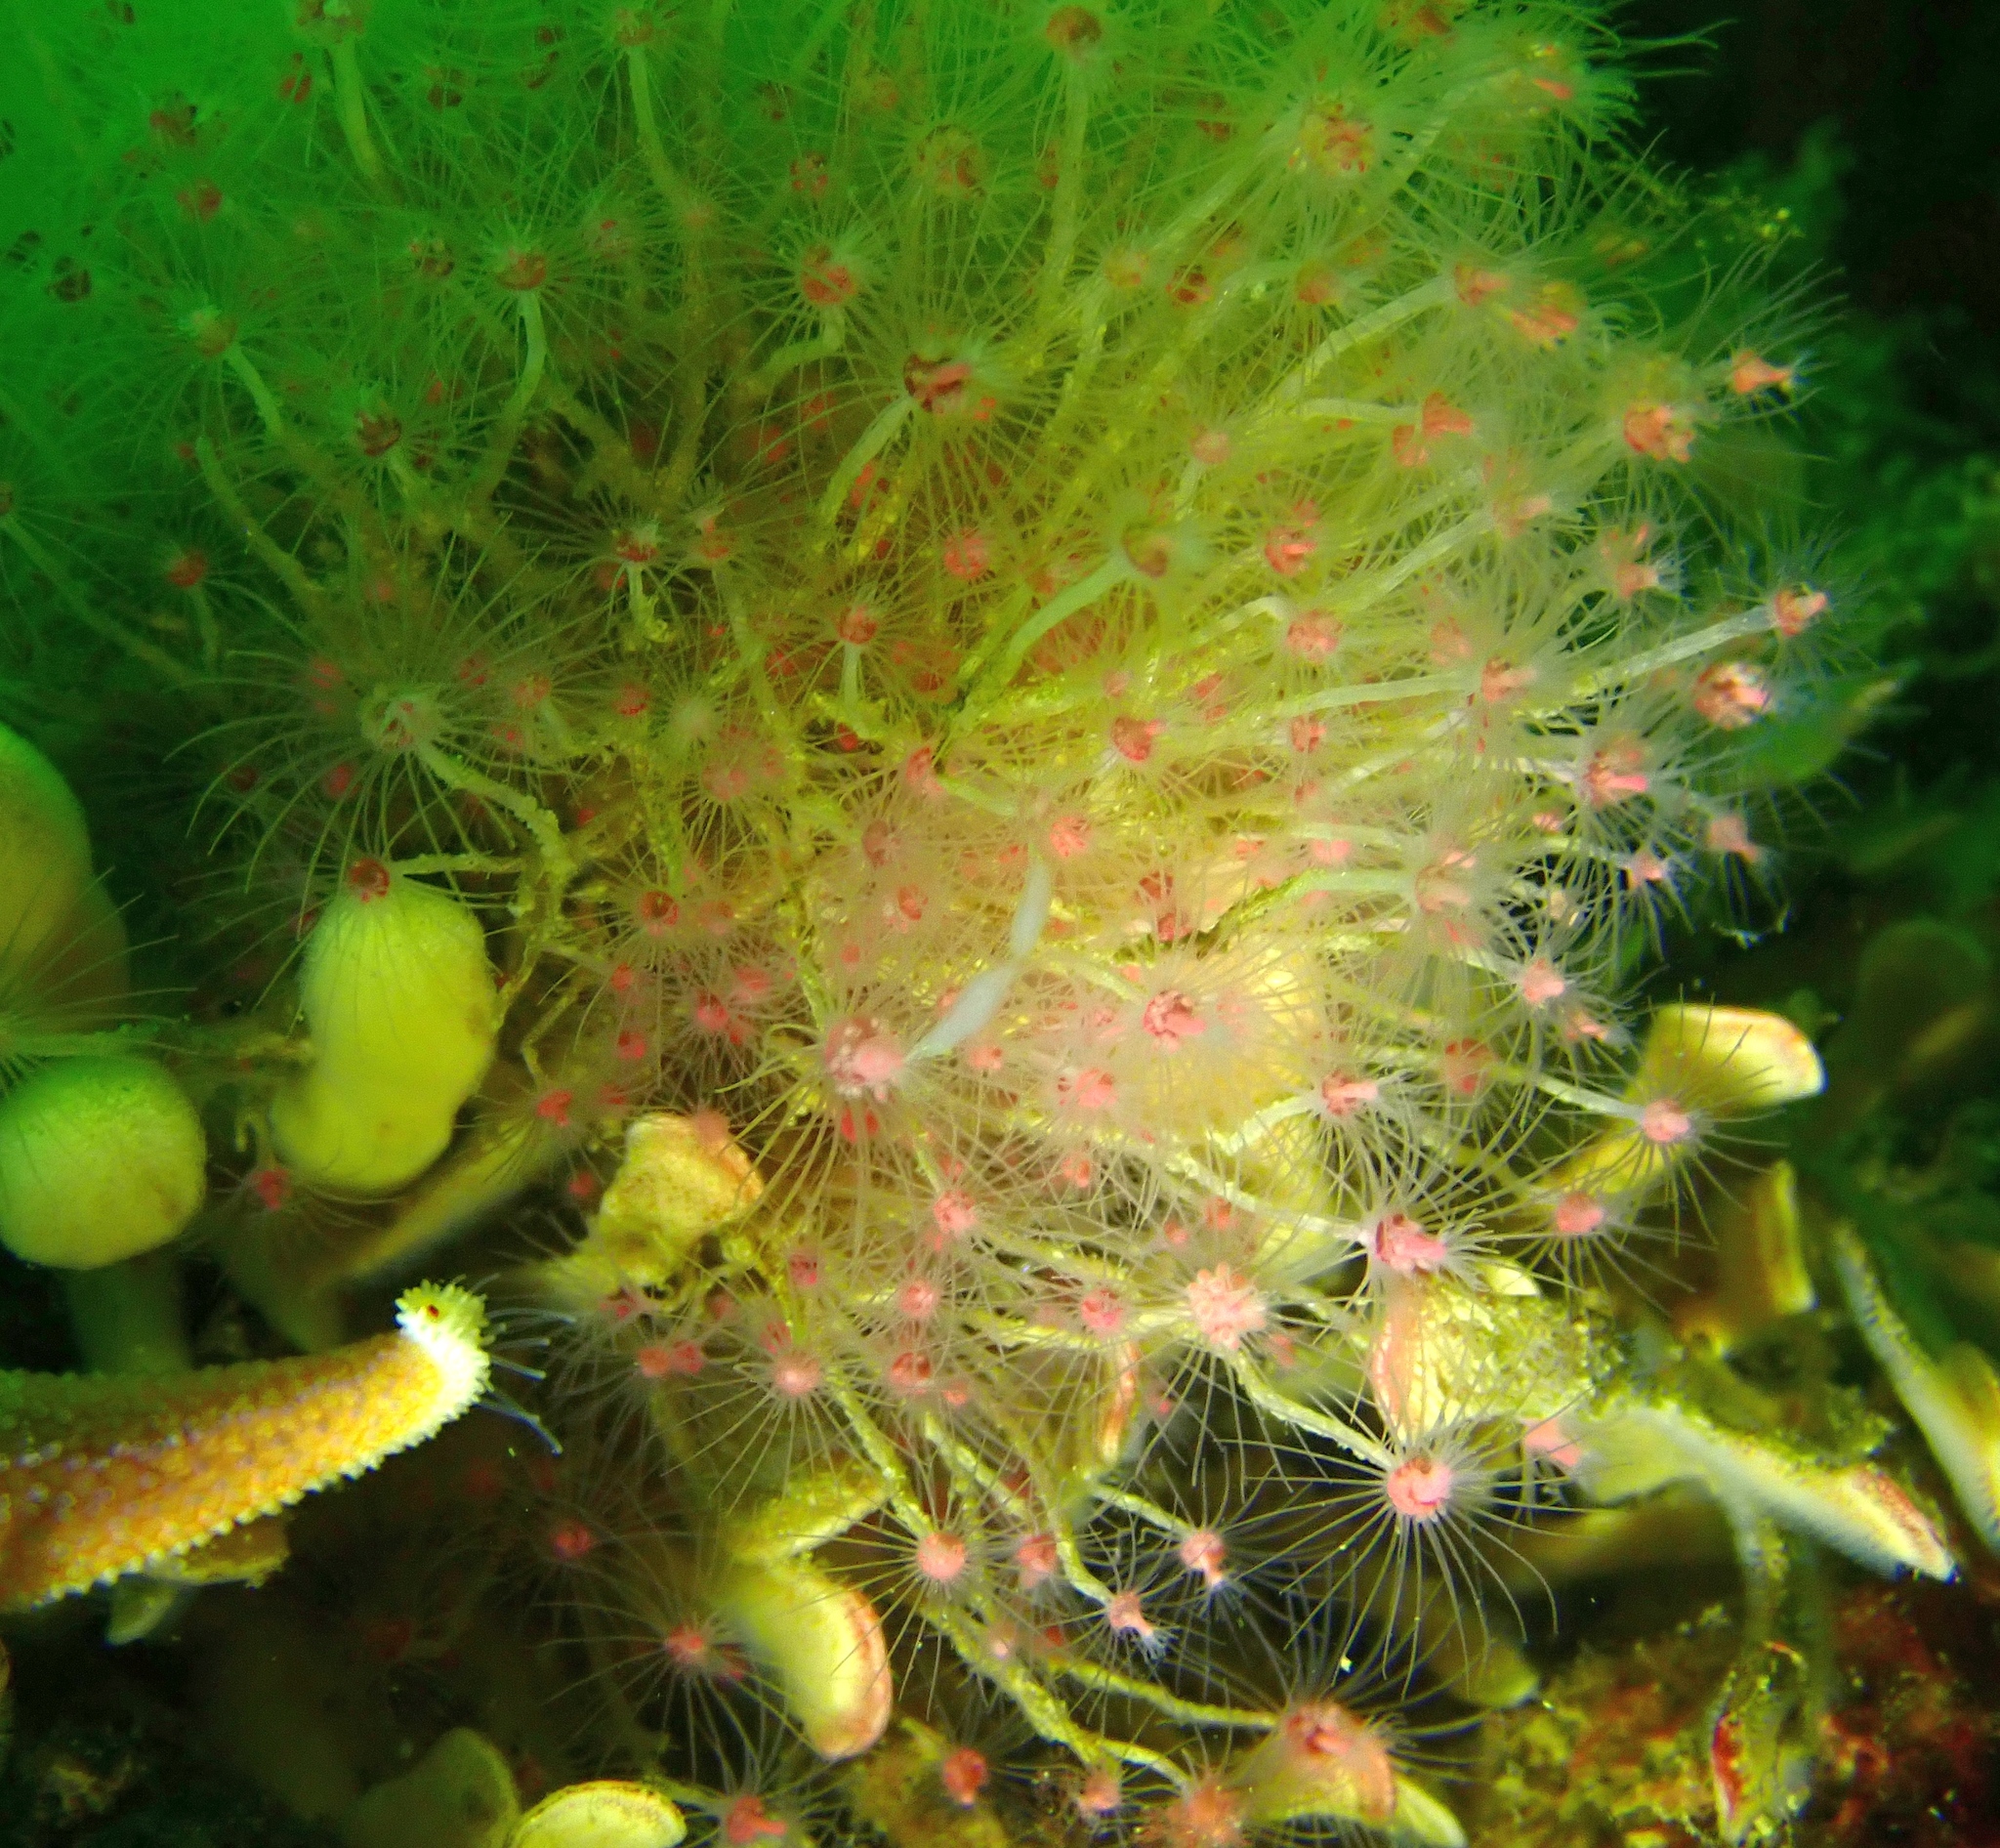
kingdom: Animalia
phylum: Cnidaria
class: Hydrozoa
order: Anthoathecata
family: Tubulariidae
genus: Tubularia
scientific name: Tubularia indivisa
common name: Oaten pipes hydroid
